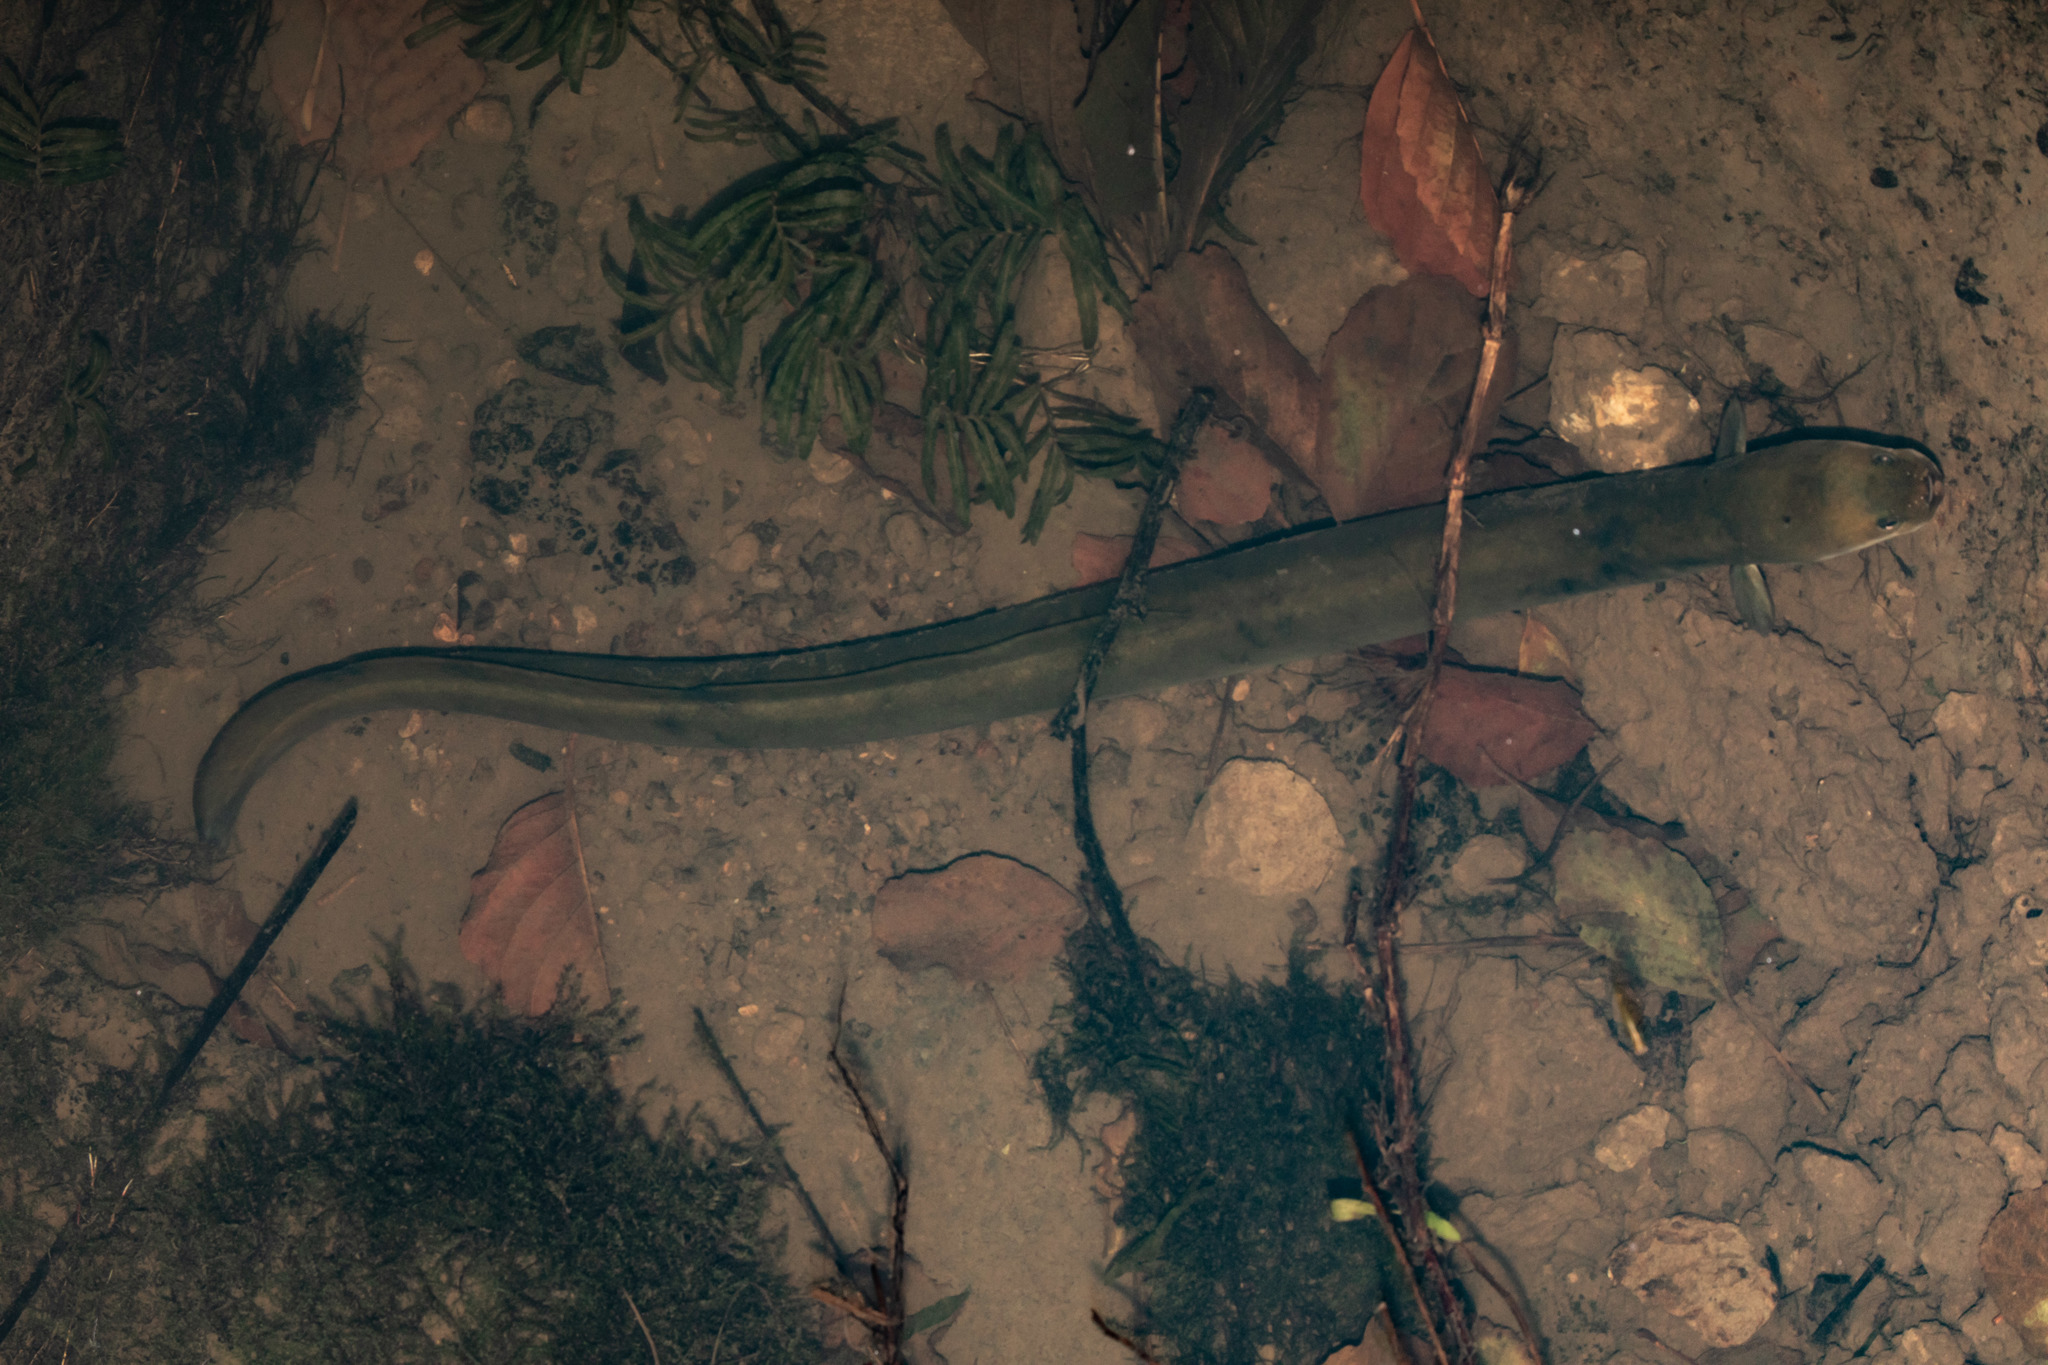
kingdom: Animalia
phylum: Chordata
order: Anguilliformes
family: Anguillidae
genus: Anguilla
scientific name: Anguilla australis
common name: Shortfin eel
